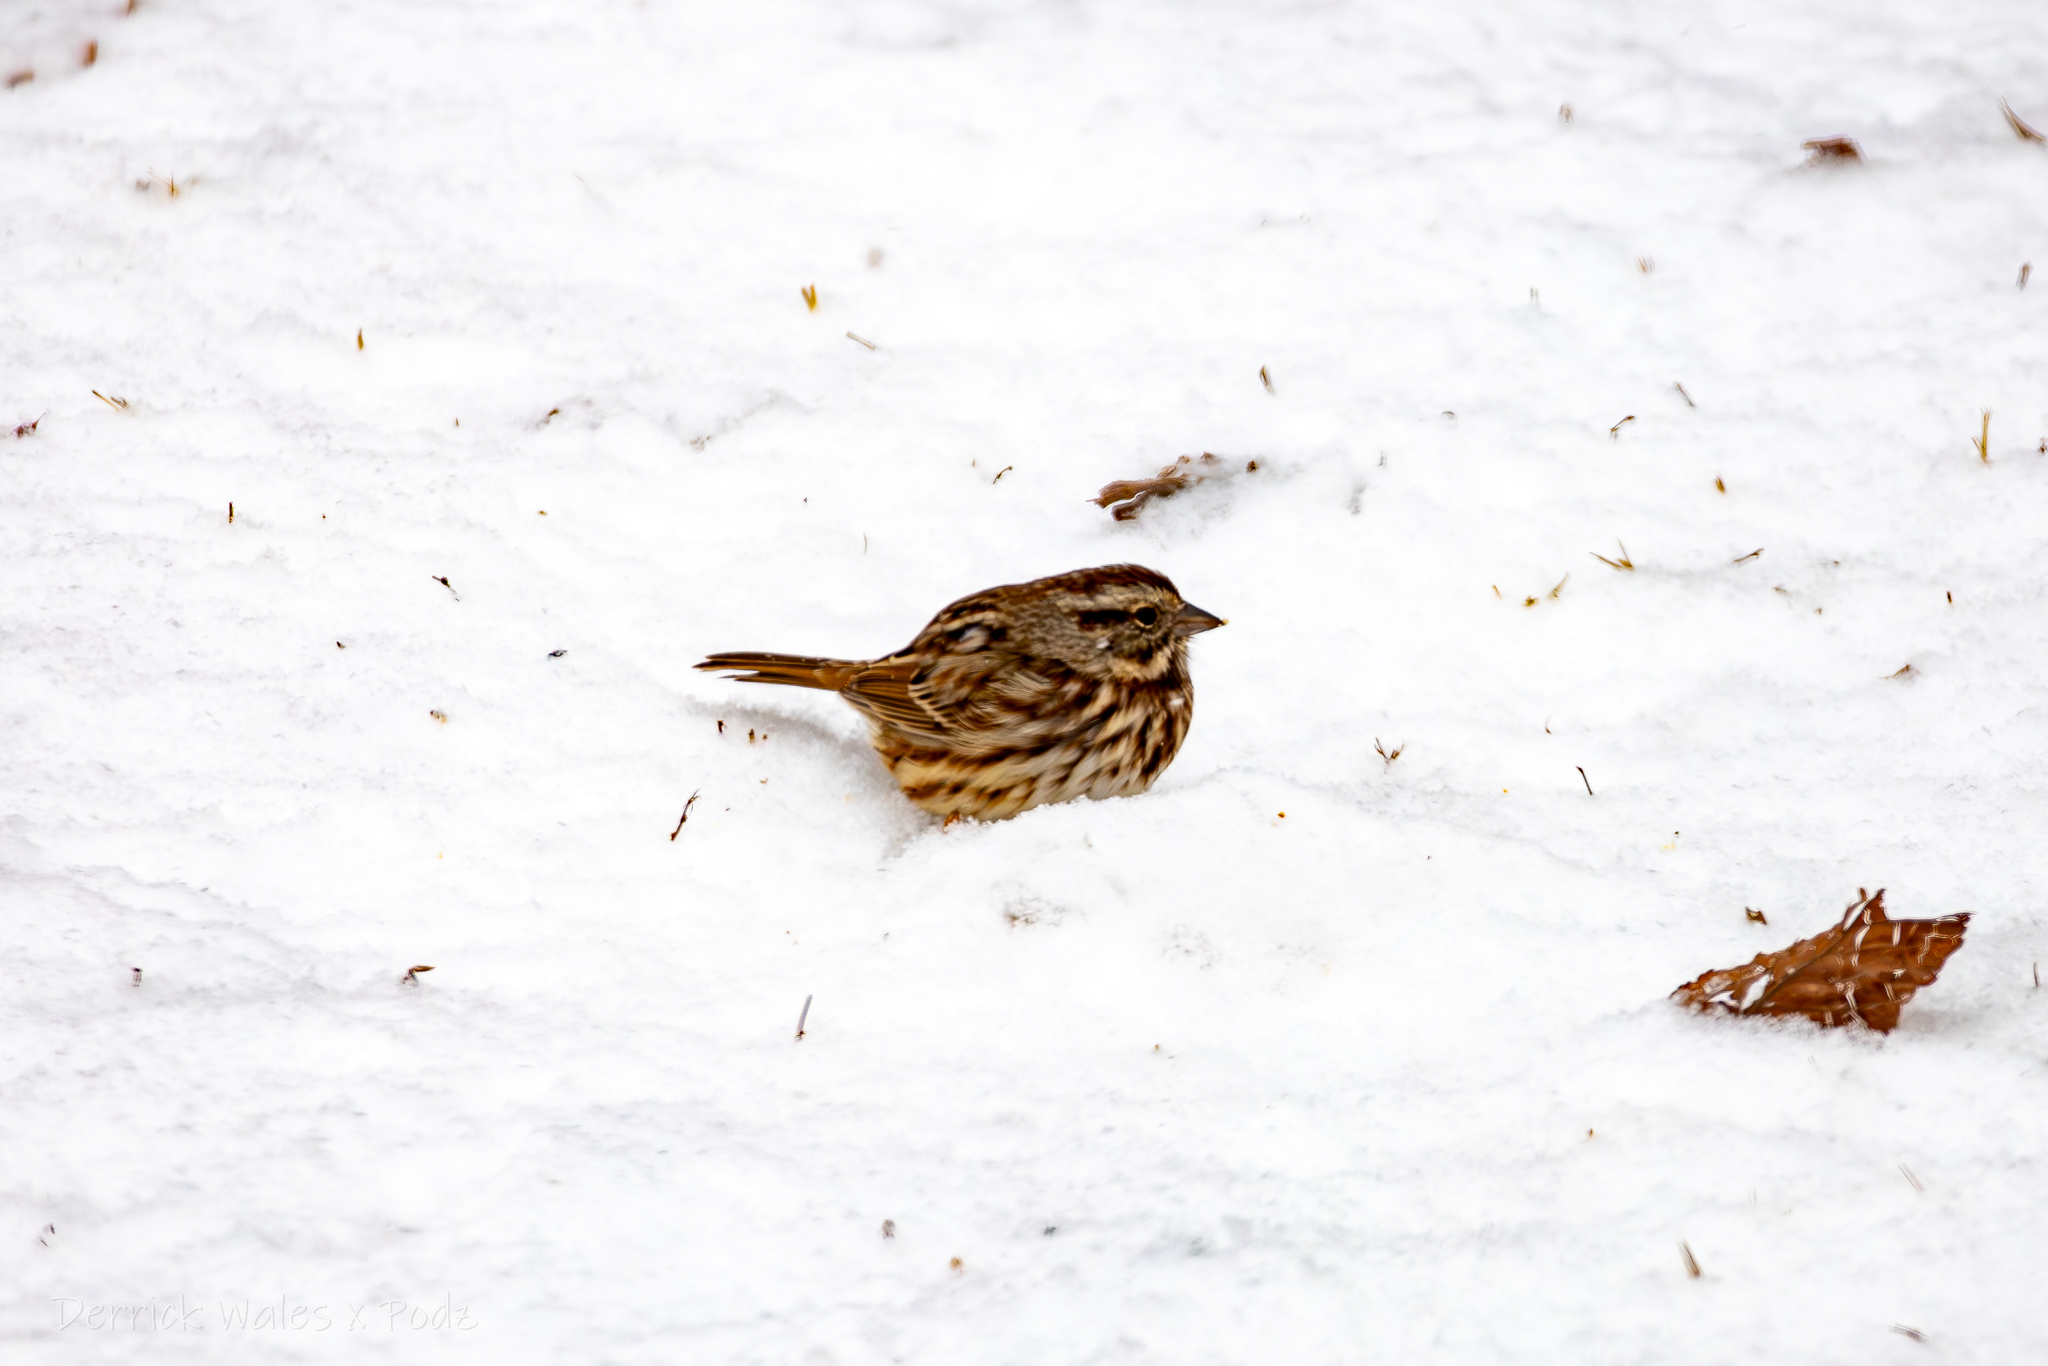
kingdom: Animalia
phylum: Chordata
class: Aves
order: Passeriformes
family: Passerellidae
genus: Melospiza
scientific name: Melospiza melodia
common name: Song sparrow
